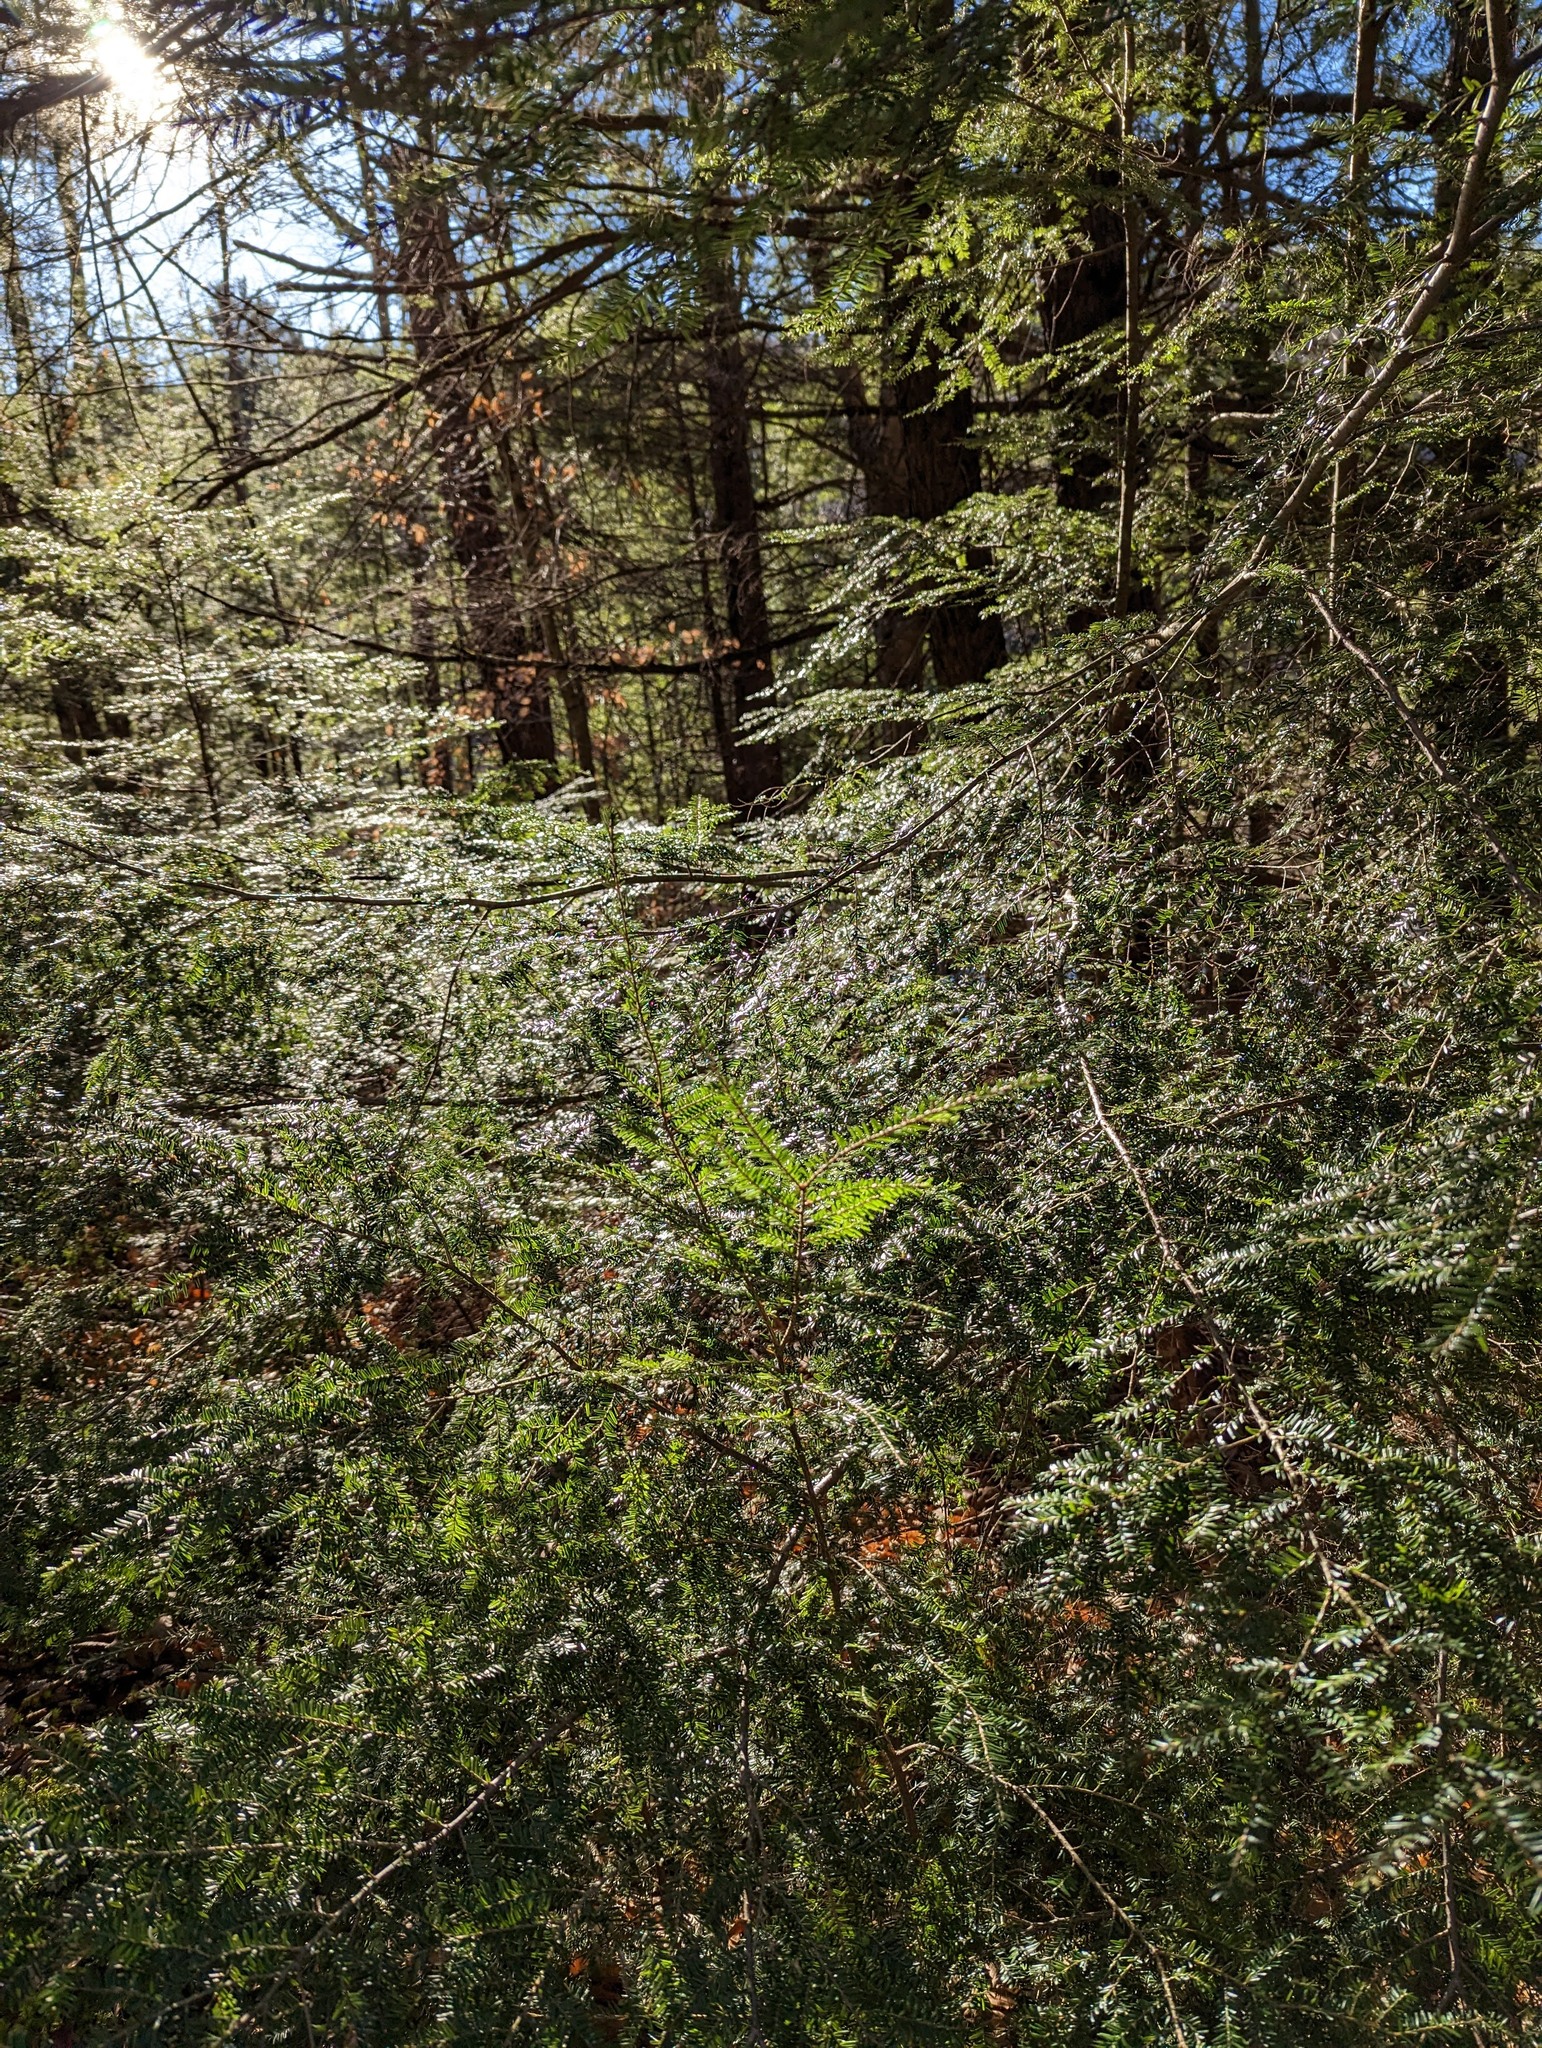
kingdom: Plantae
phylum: Tracheophyta
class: Pinopsida
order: Pinales
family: Pinaceae
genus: Tsuga
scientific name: Tsuga canadensis
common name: Eastern hemlock
